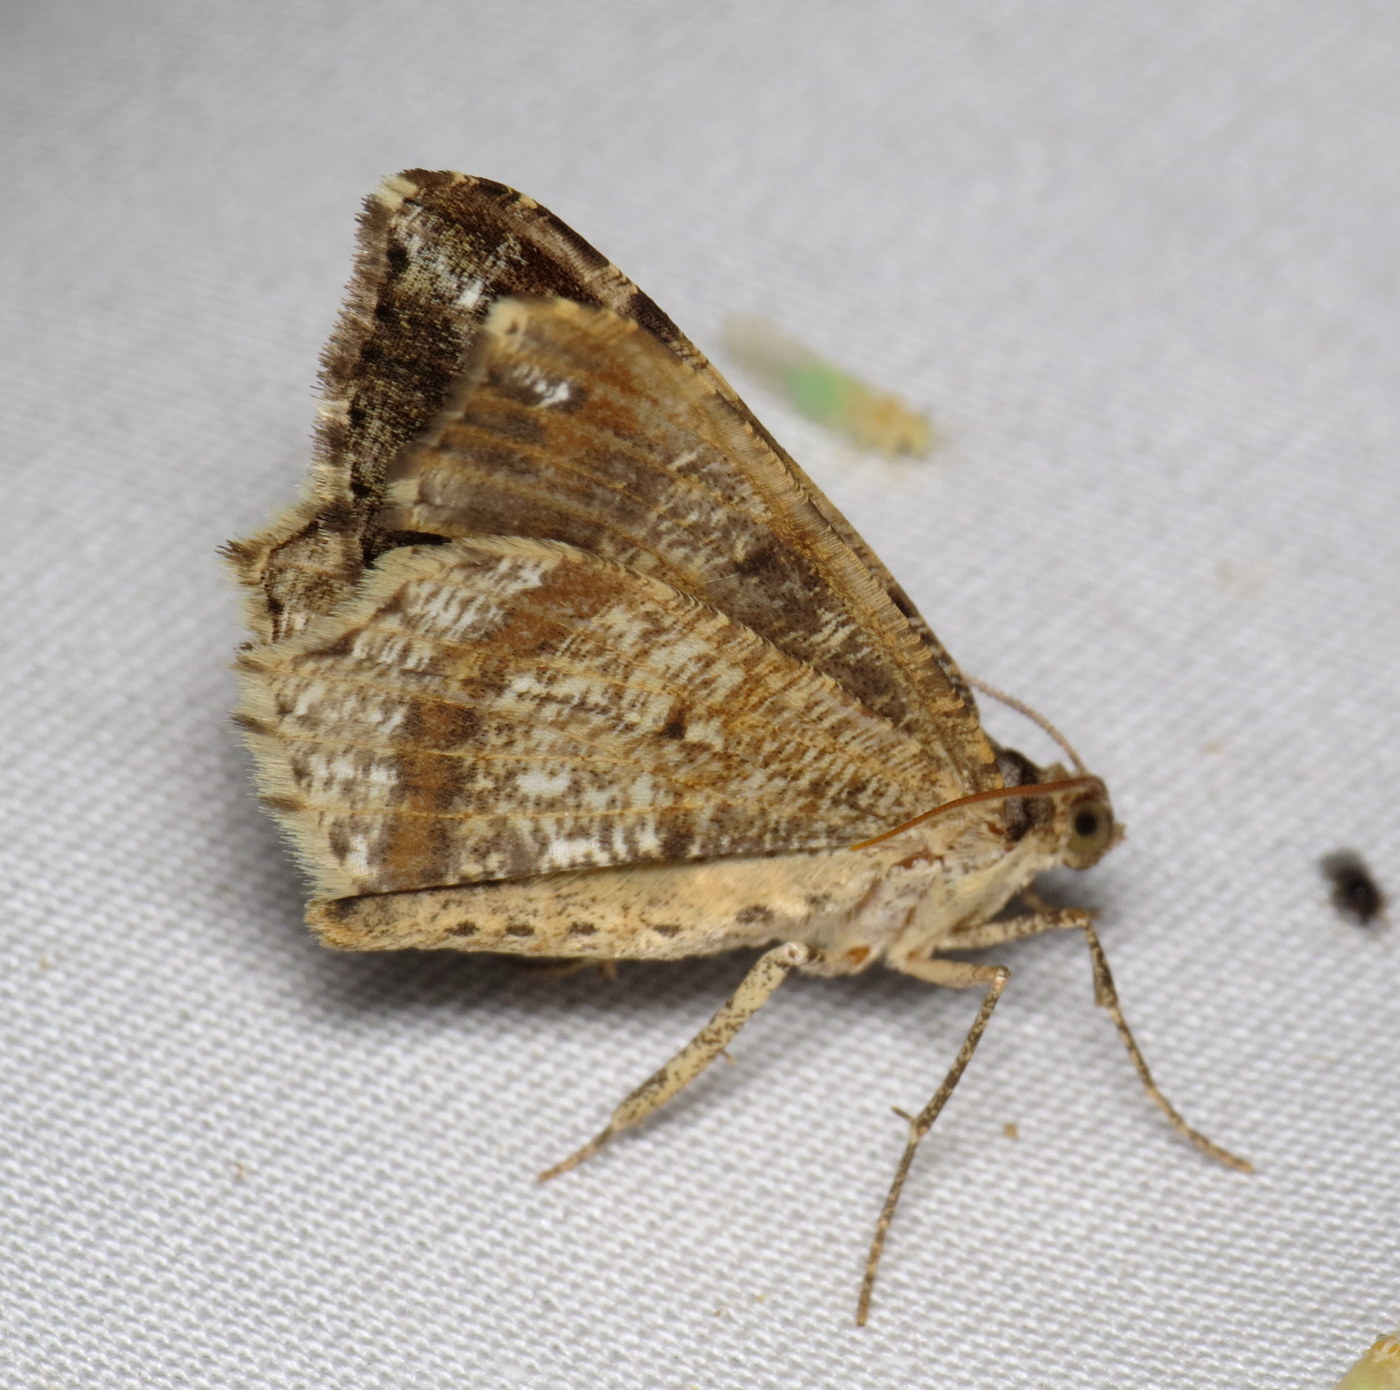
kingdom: Animalia
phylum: Arthropoda
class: Insecta
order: Lepidoptera
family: Geometridae
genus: Macaria
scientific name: Macaria granitata
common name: Granite moth
